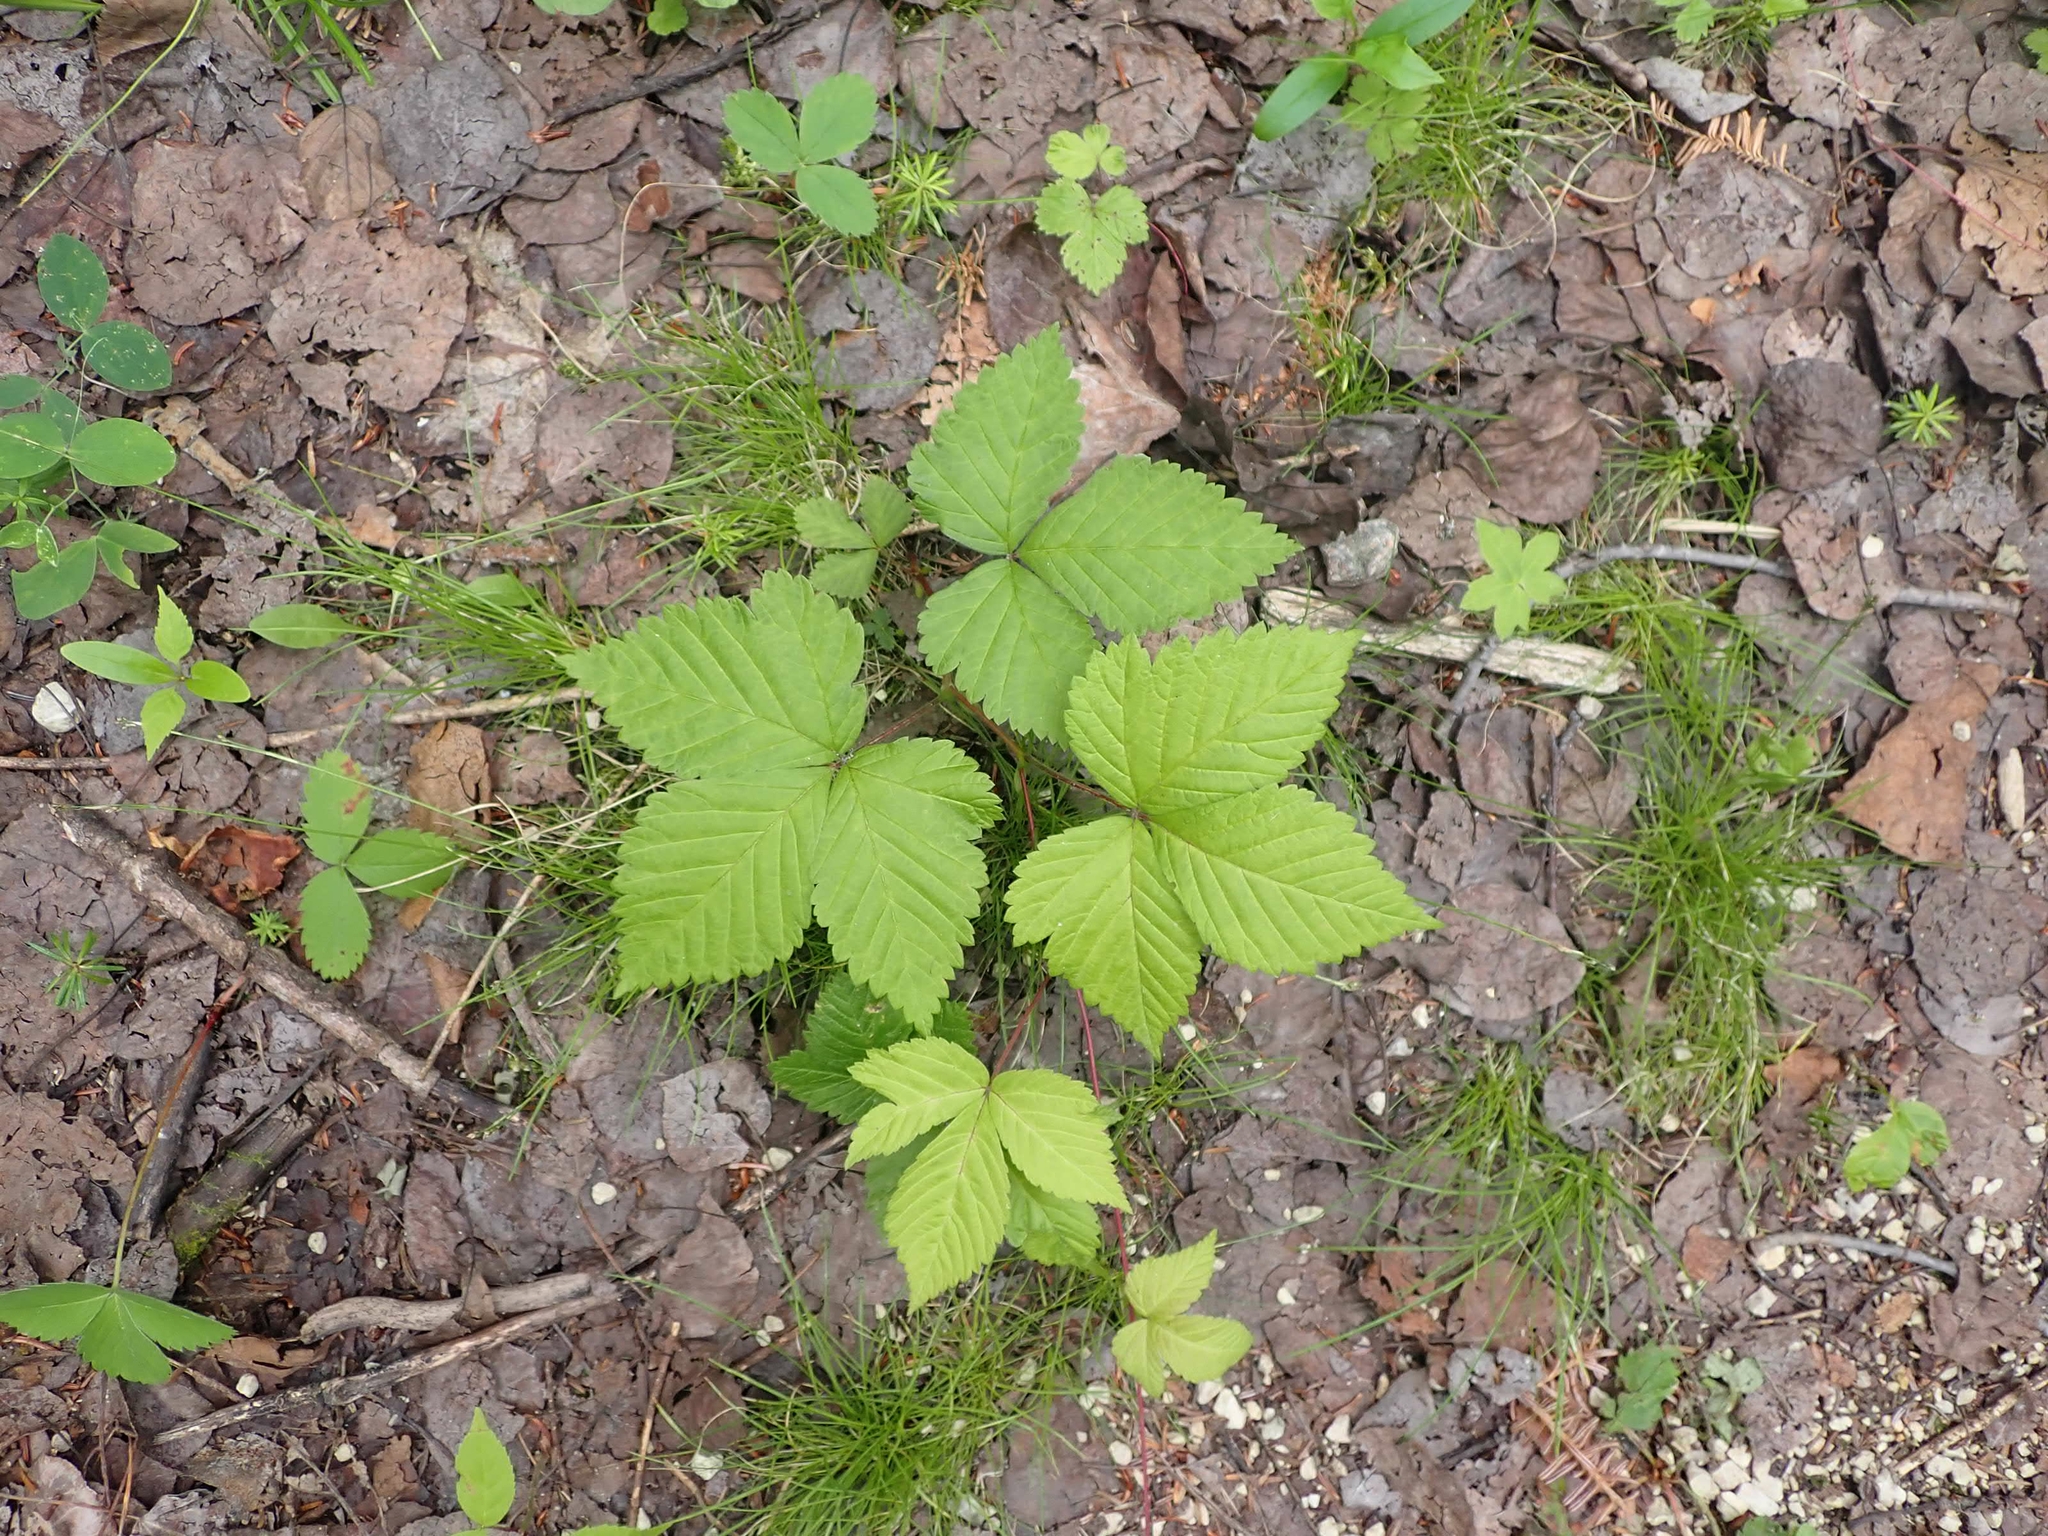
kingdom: Plantae
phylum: Tracheophyta
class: Magnoliopsida
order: Rosales
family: Rosaceae
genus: Rubus
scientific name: Rubus pubescens
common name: Dwarf raspberry
